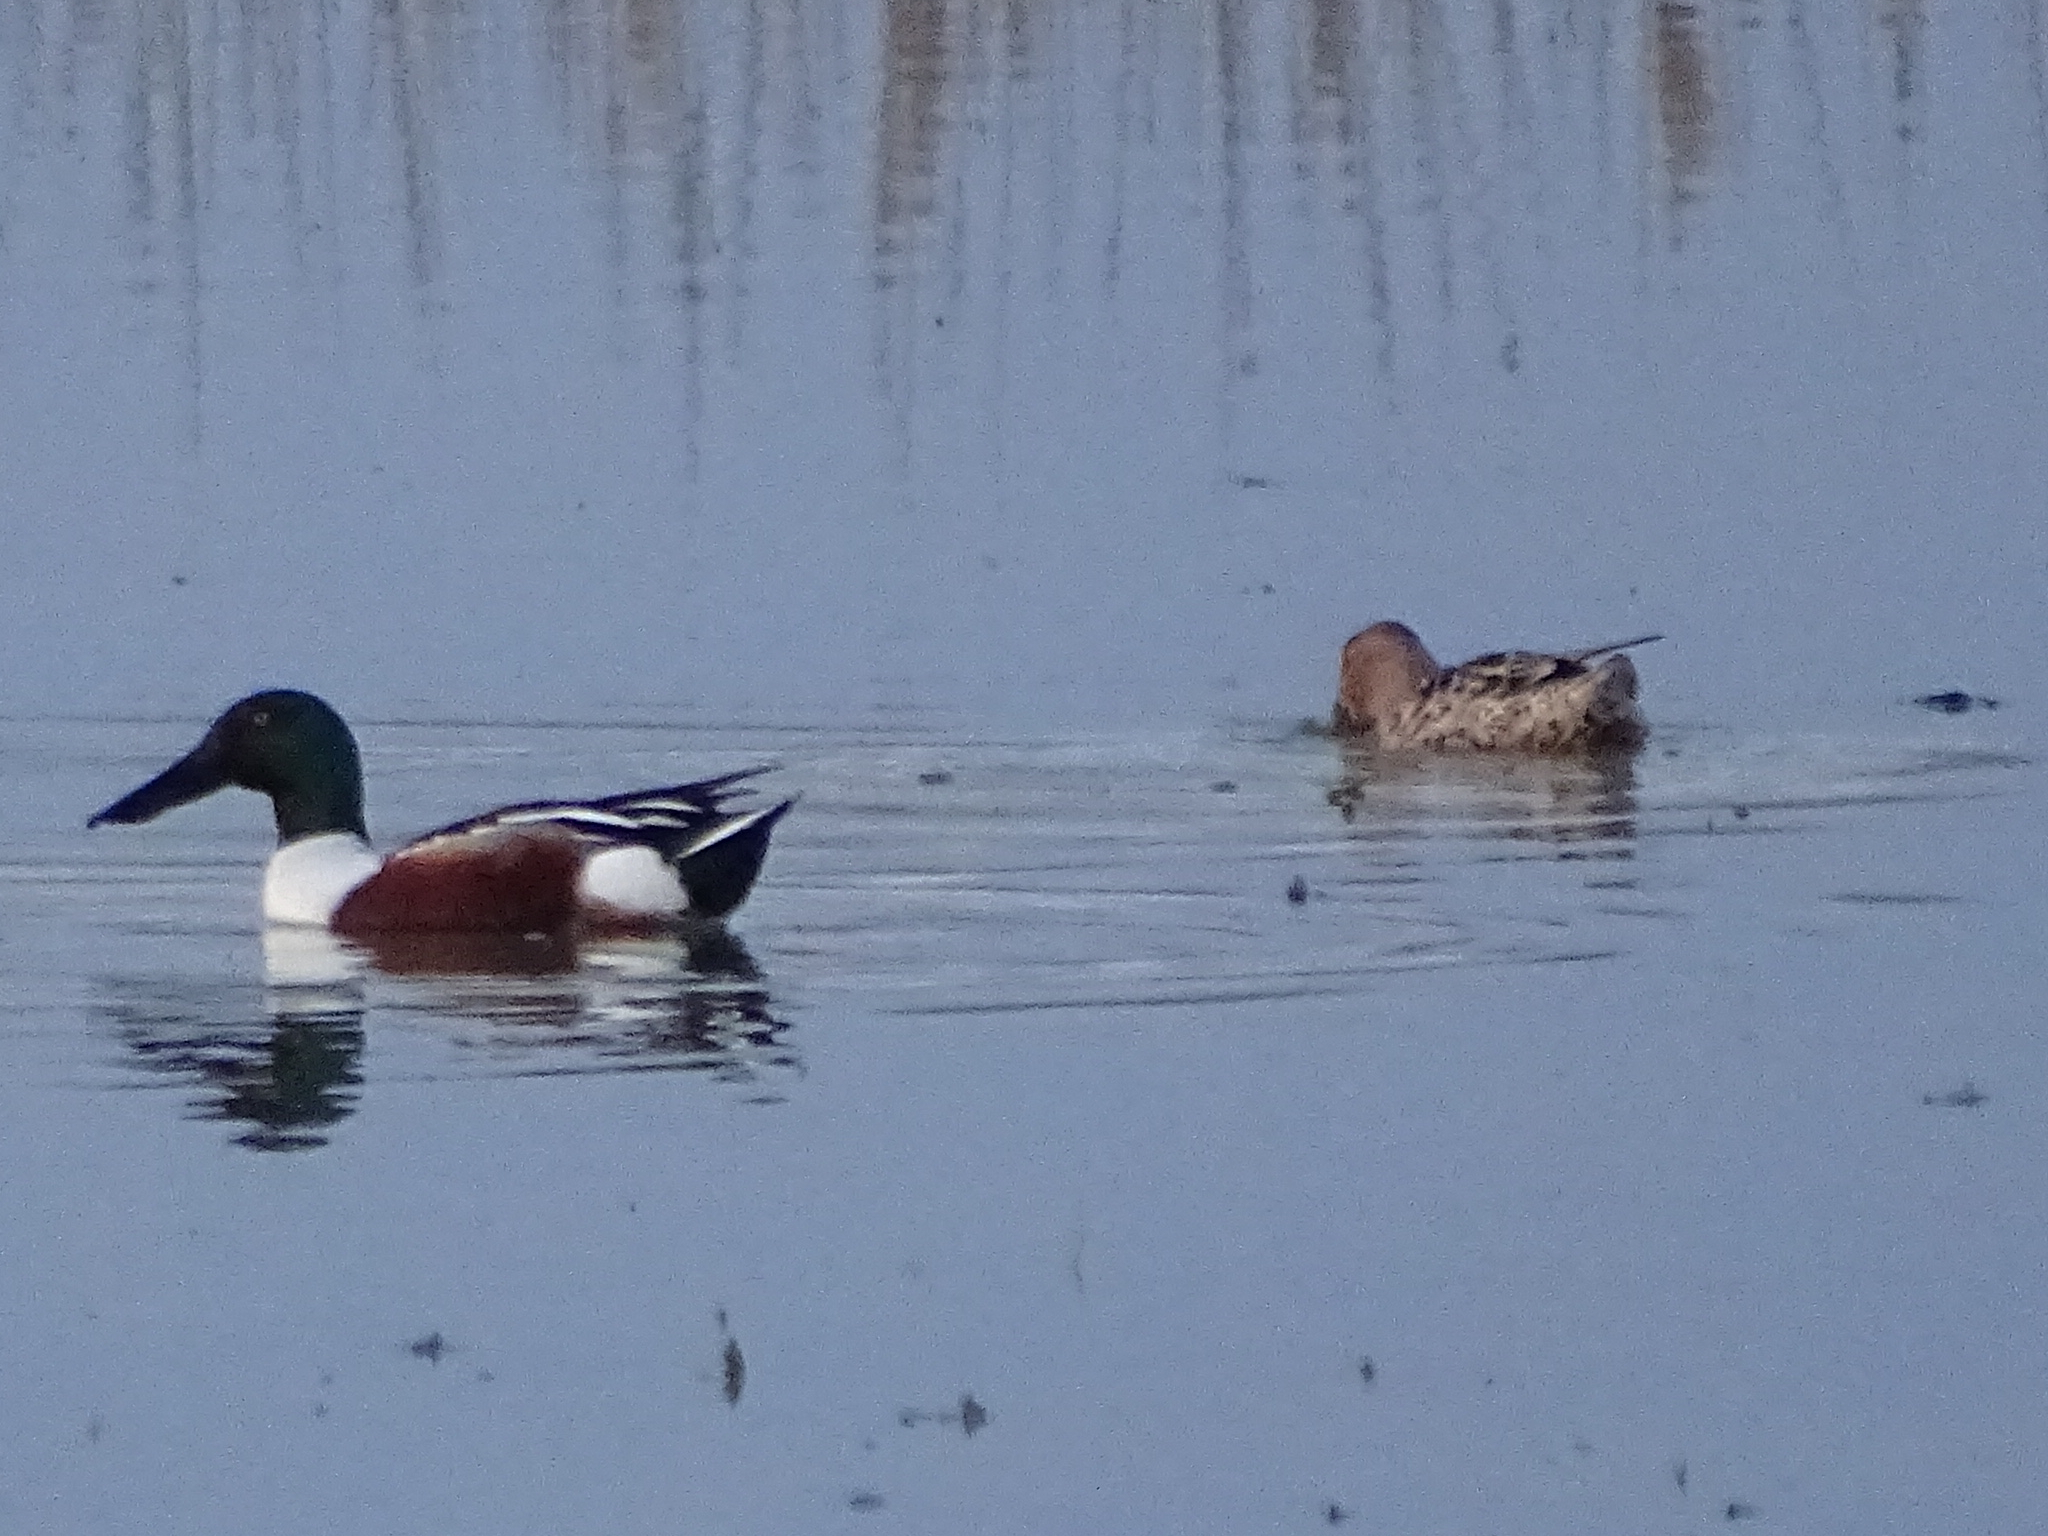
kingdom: Animalia
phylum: Chordata
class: Aves
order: Anseriformes
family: Anatidae
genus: Spatula
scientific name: Spatula clypeata
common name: Northern shoveler
